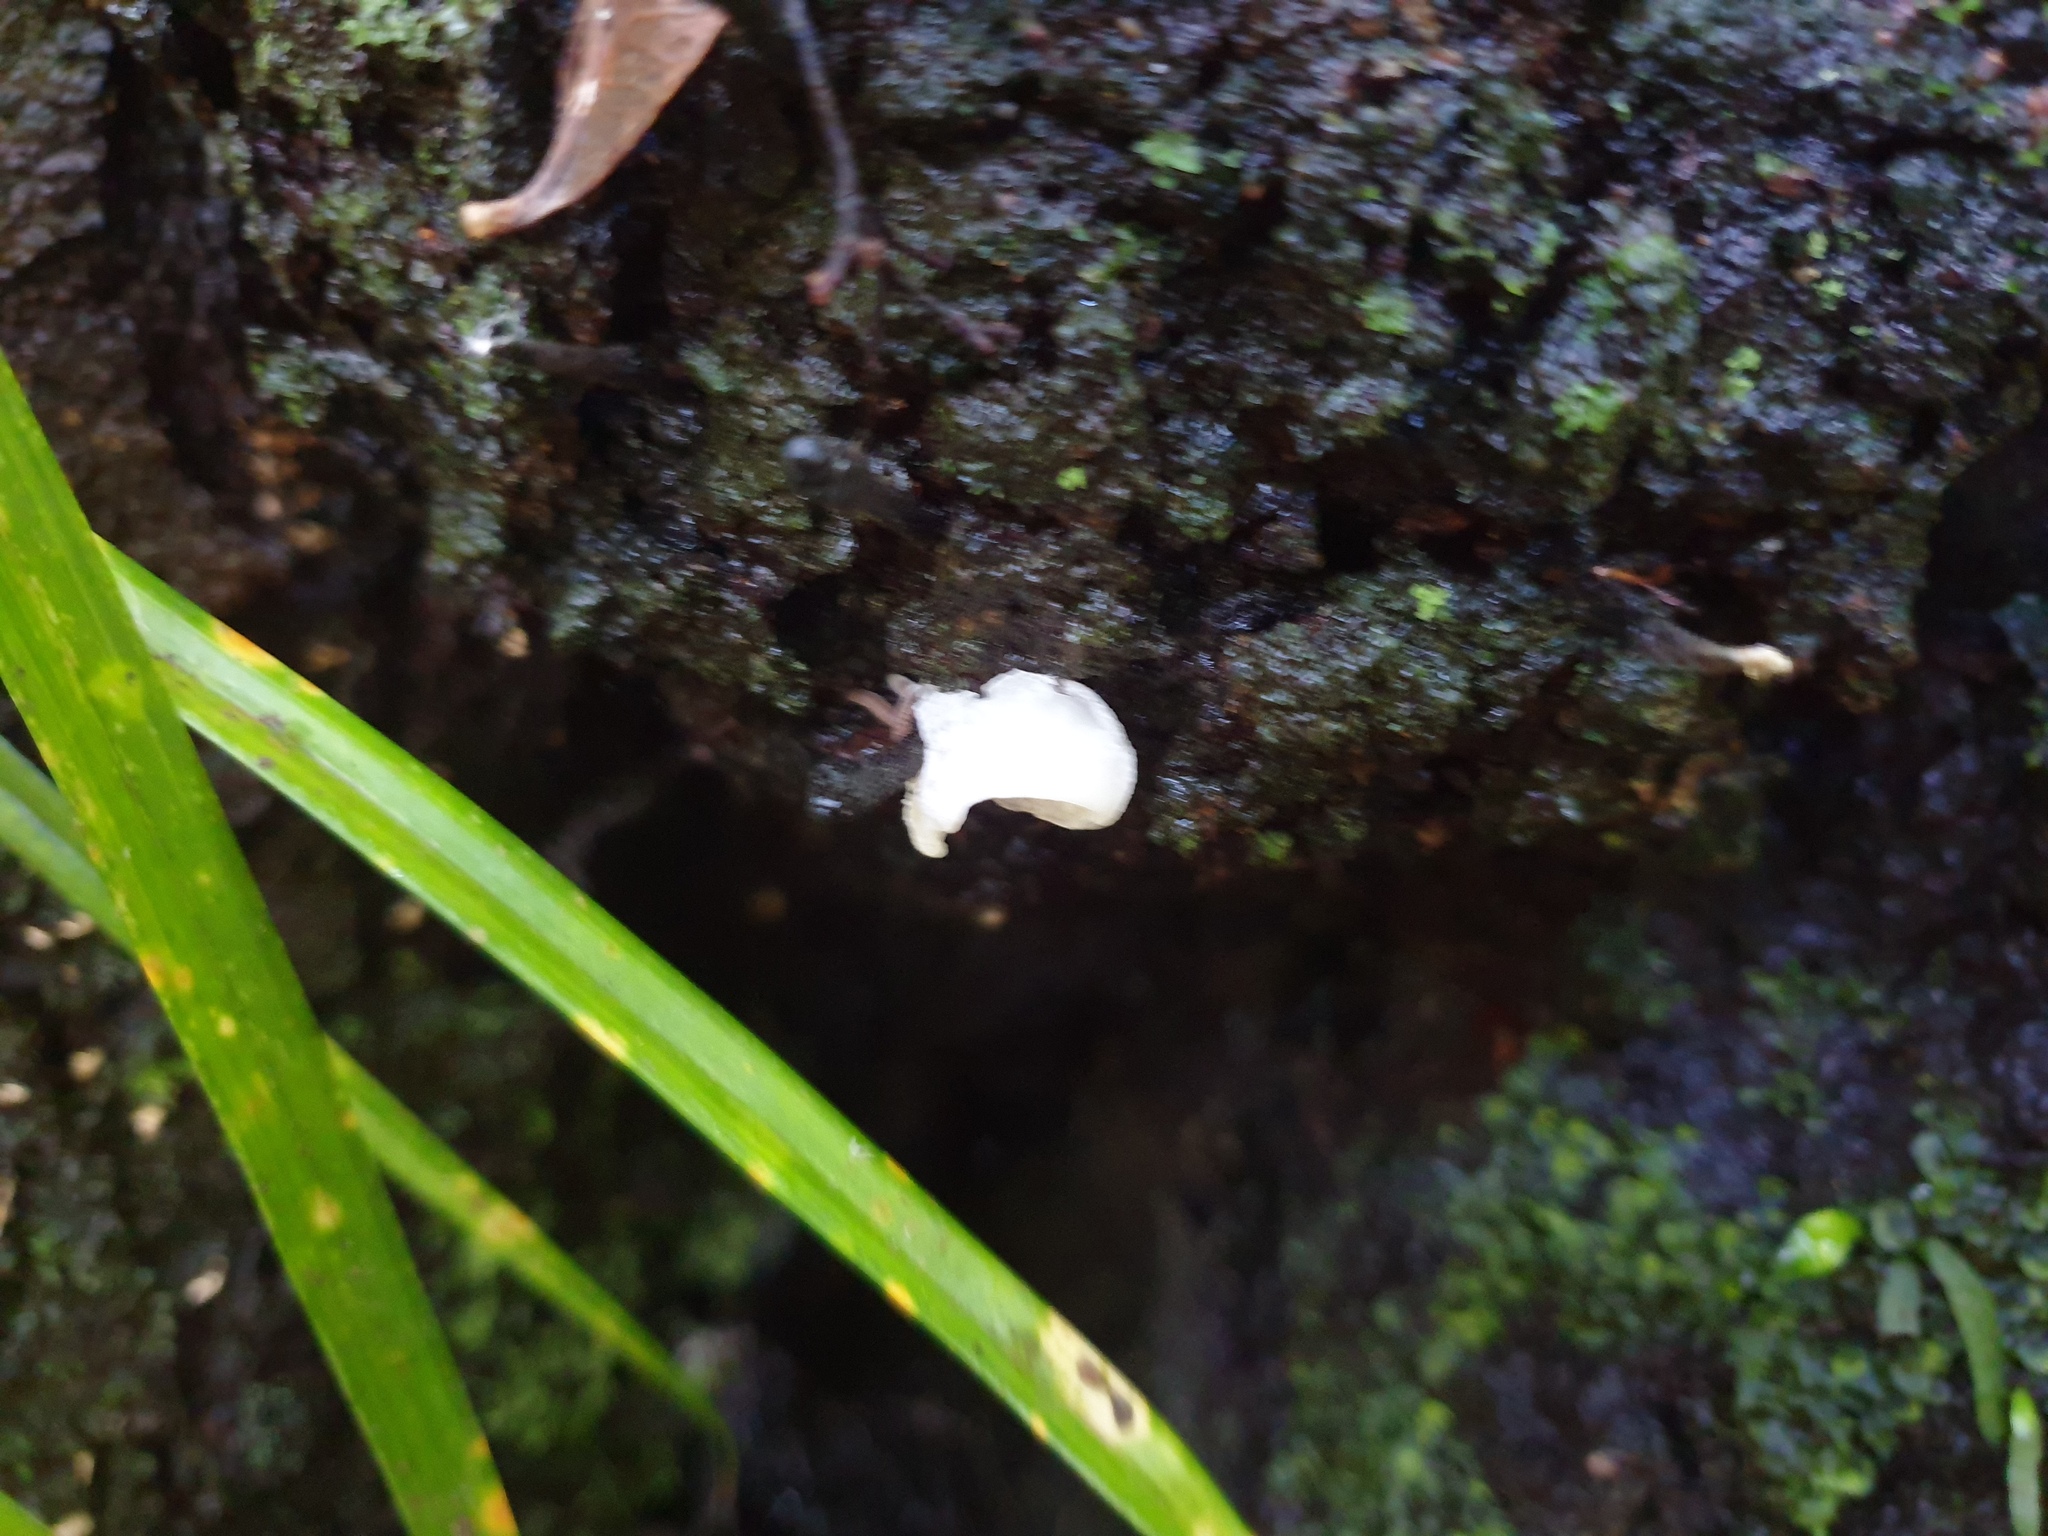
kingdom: Fungi
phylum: Basidiomycota
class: Agaricomycetes
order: Agaricales
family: Mycenaceae
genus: Favolaschia
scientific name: Favolaschia pustulosa
